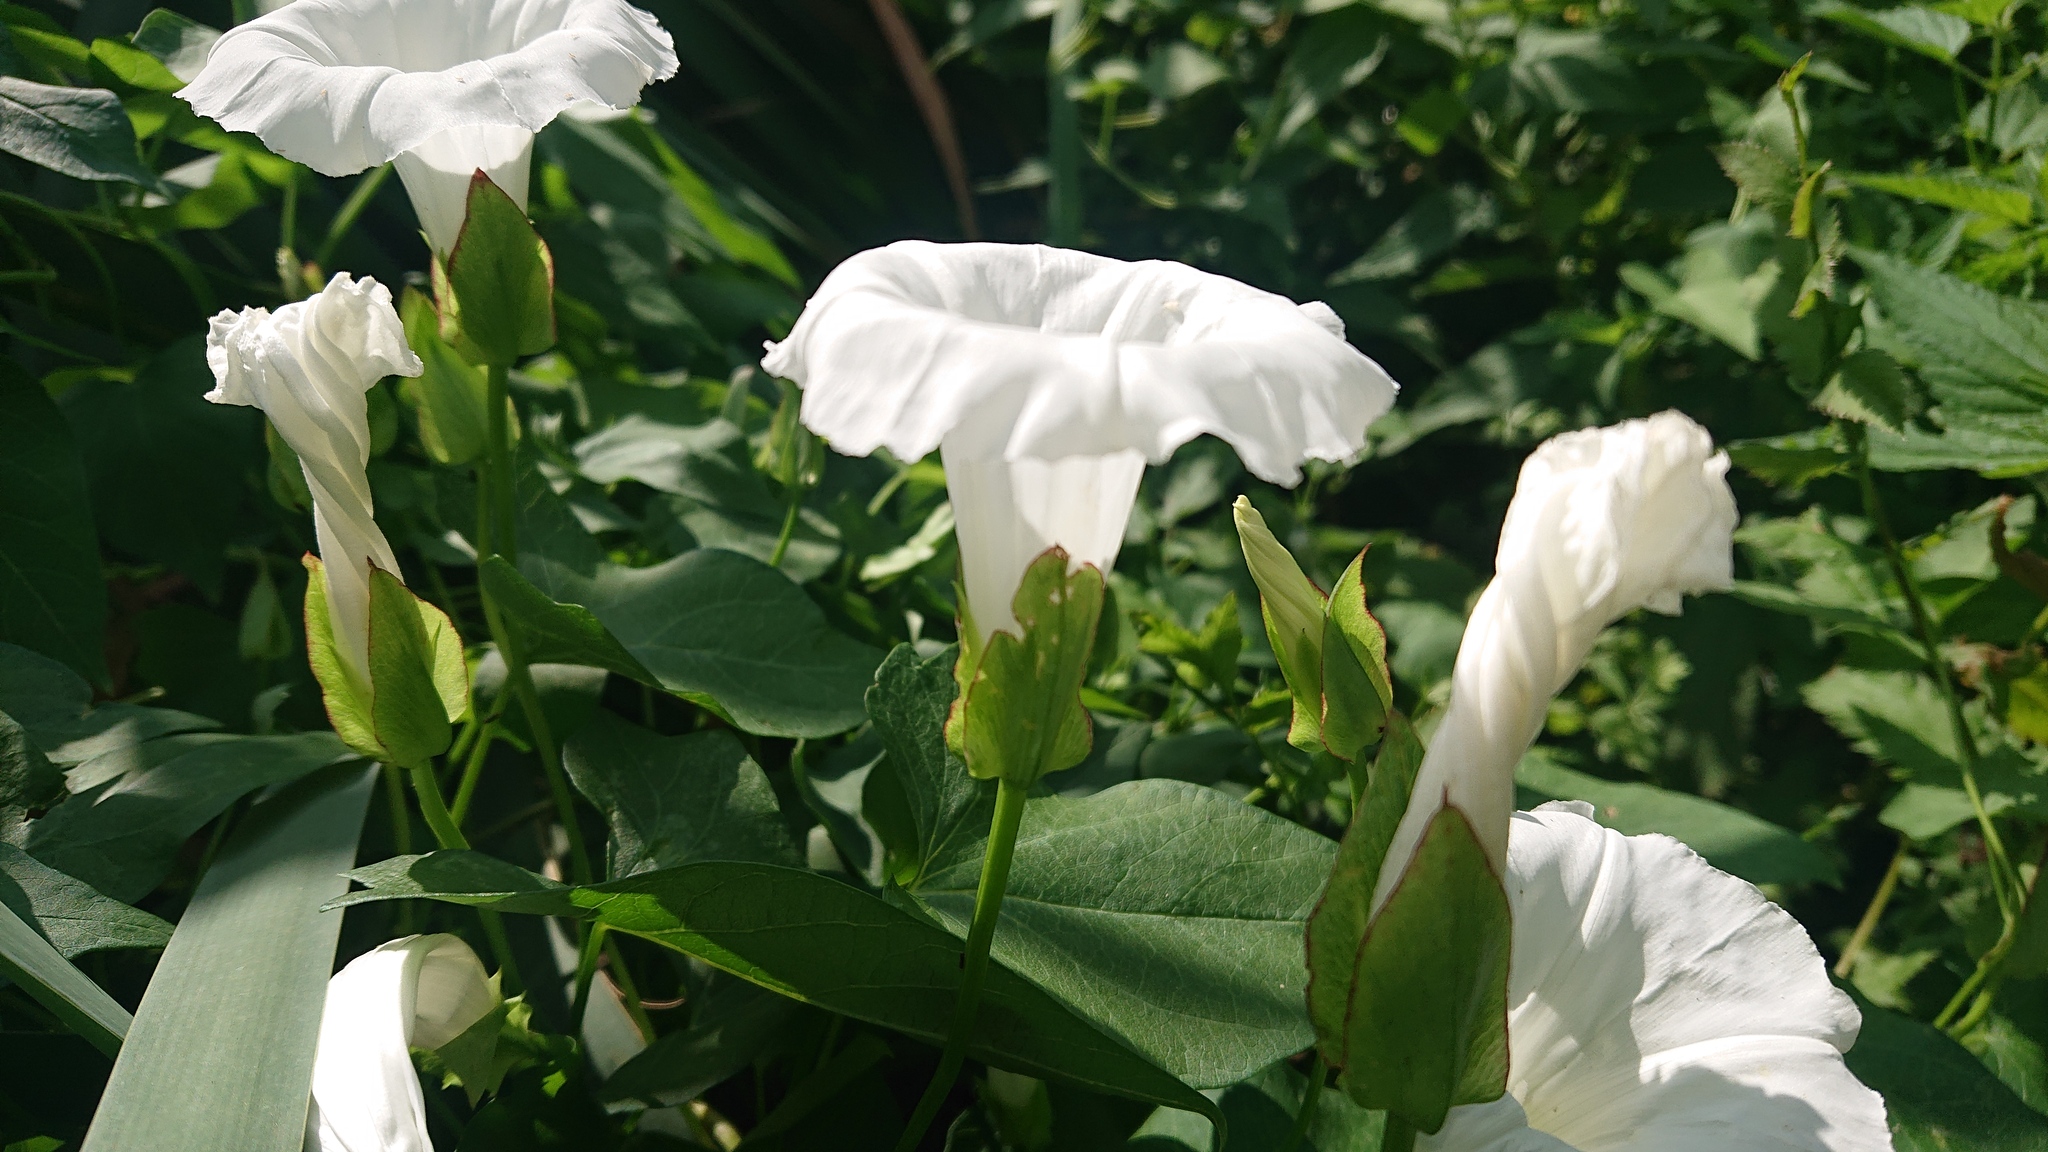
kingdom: Plantae
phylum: Tracheophyta
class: Magnoliopsida
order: Solanales
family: Convolvulaceae
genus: Calystegia
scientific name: Calystegia sepium
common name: Hedge bindweed
